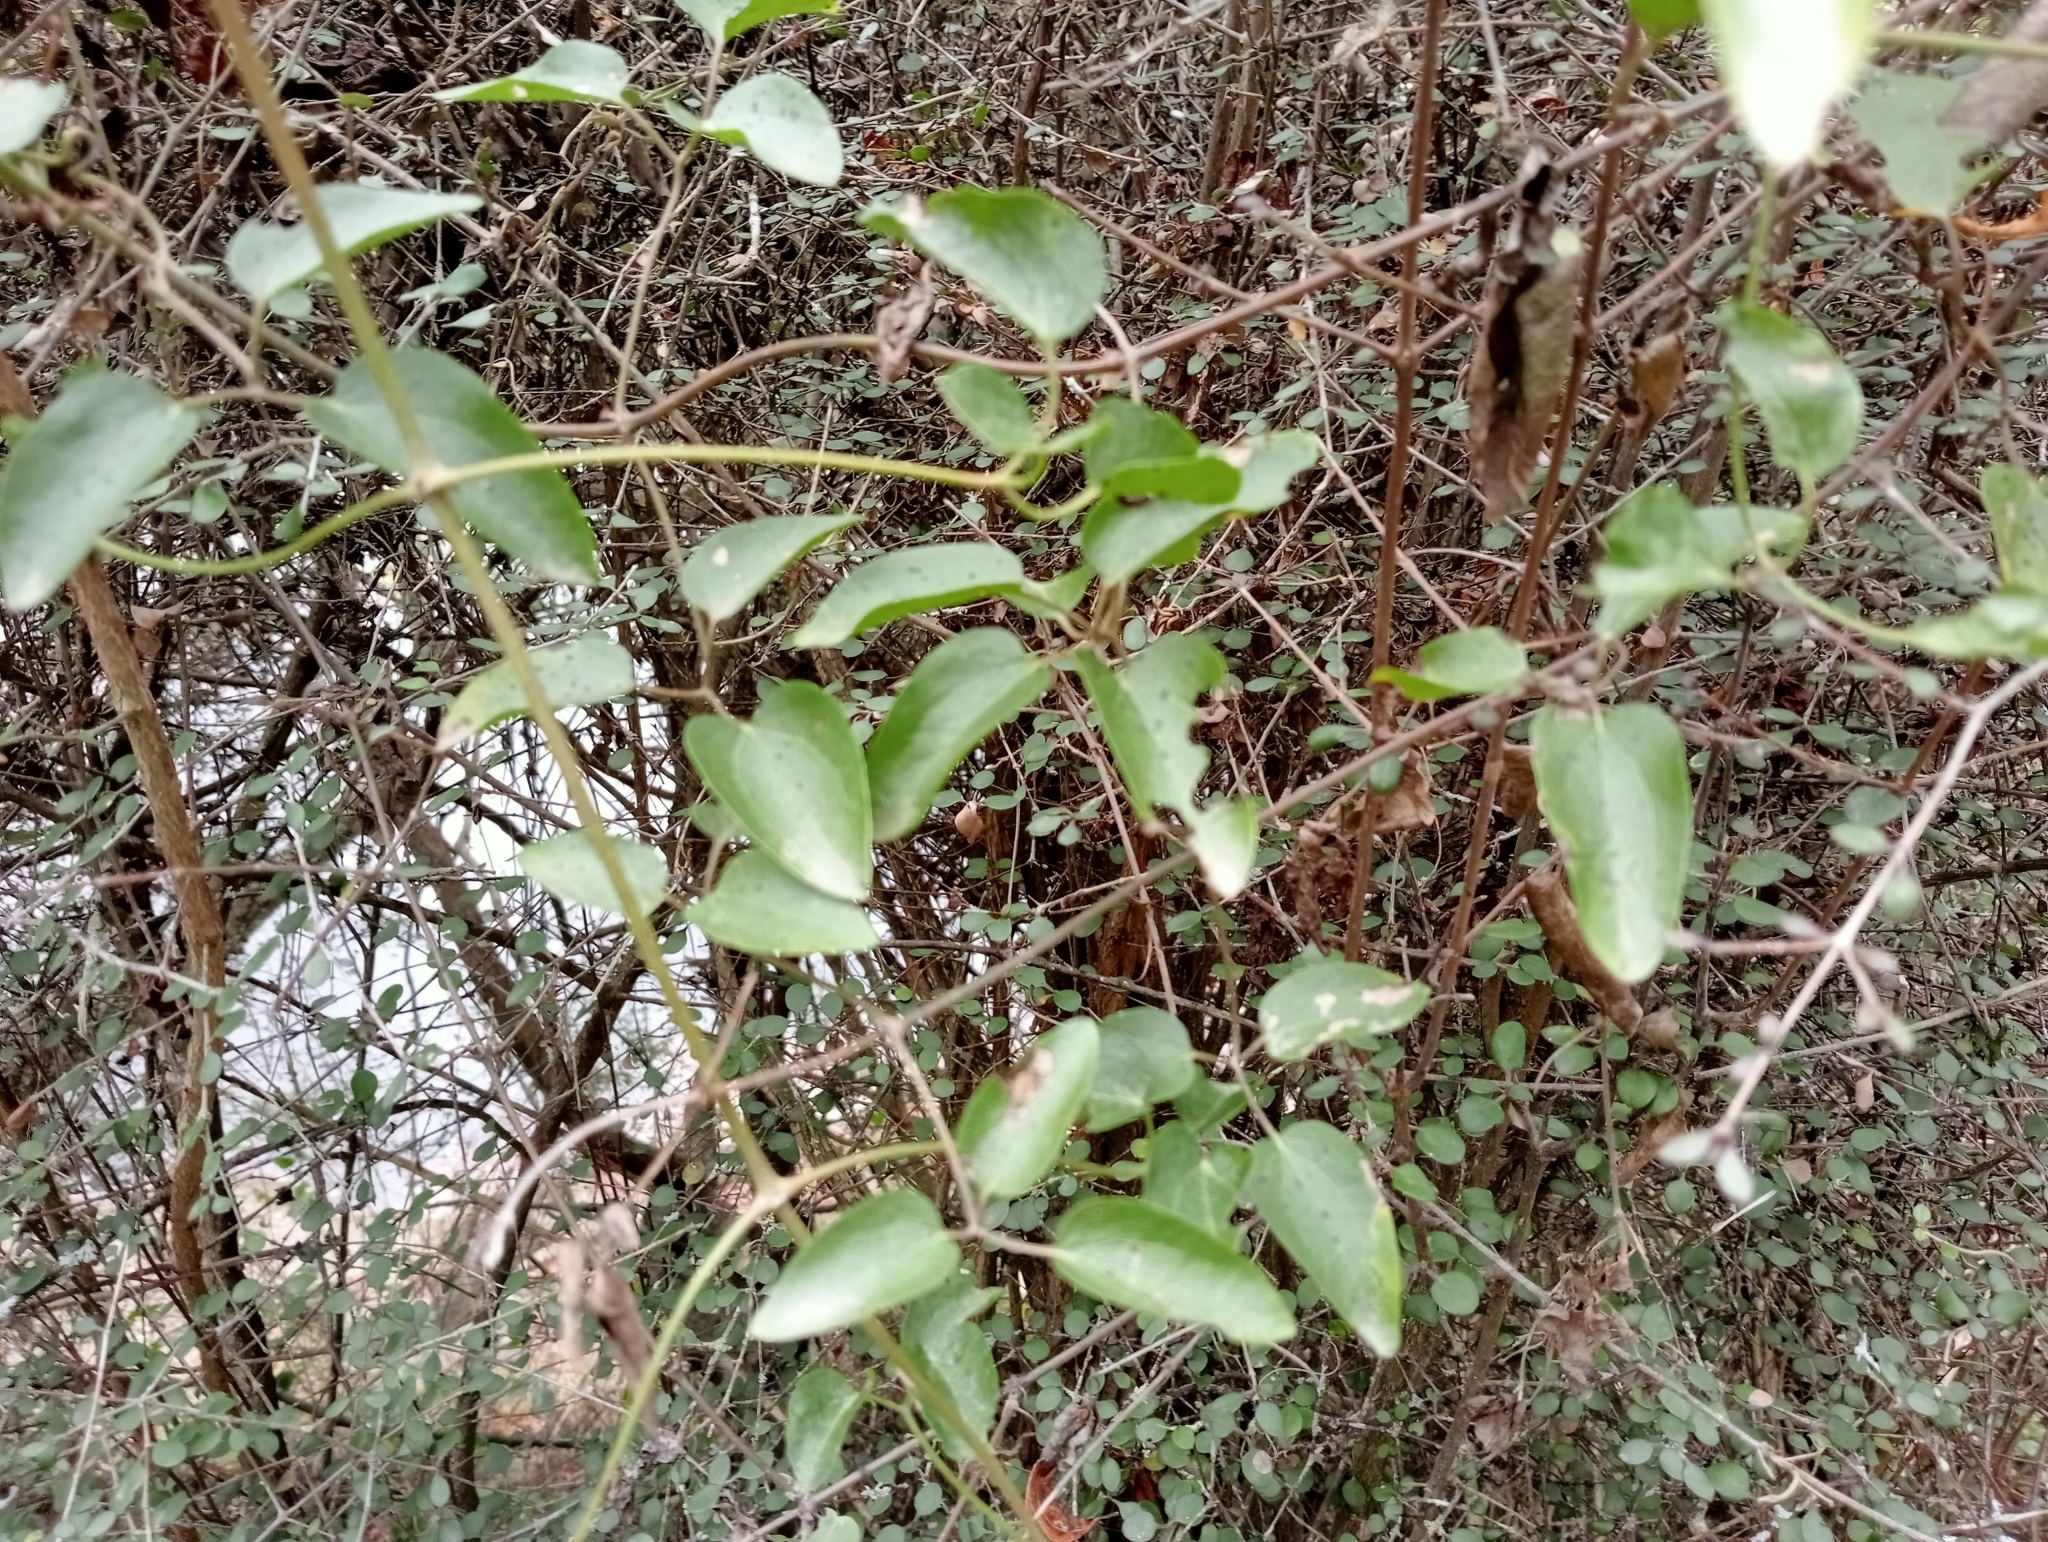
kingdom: Plantae
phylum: Tracheophyta
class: Magnoliopsida
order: Ranunculales
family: Ranunculaceae
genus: Clematis
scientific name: Clematis foetida
